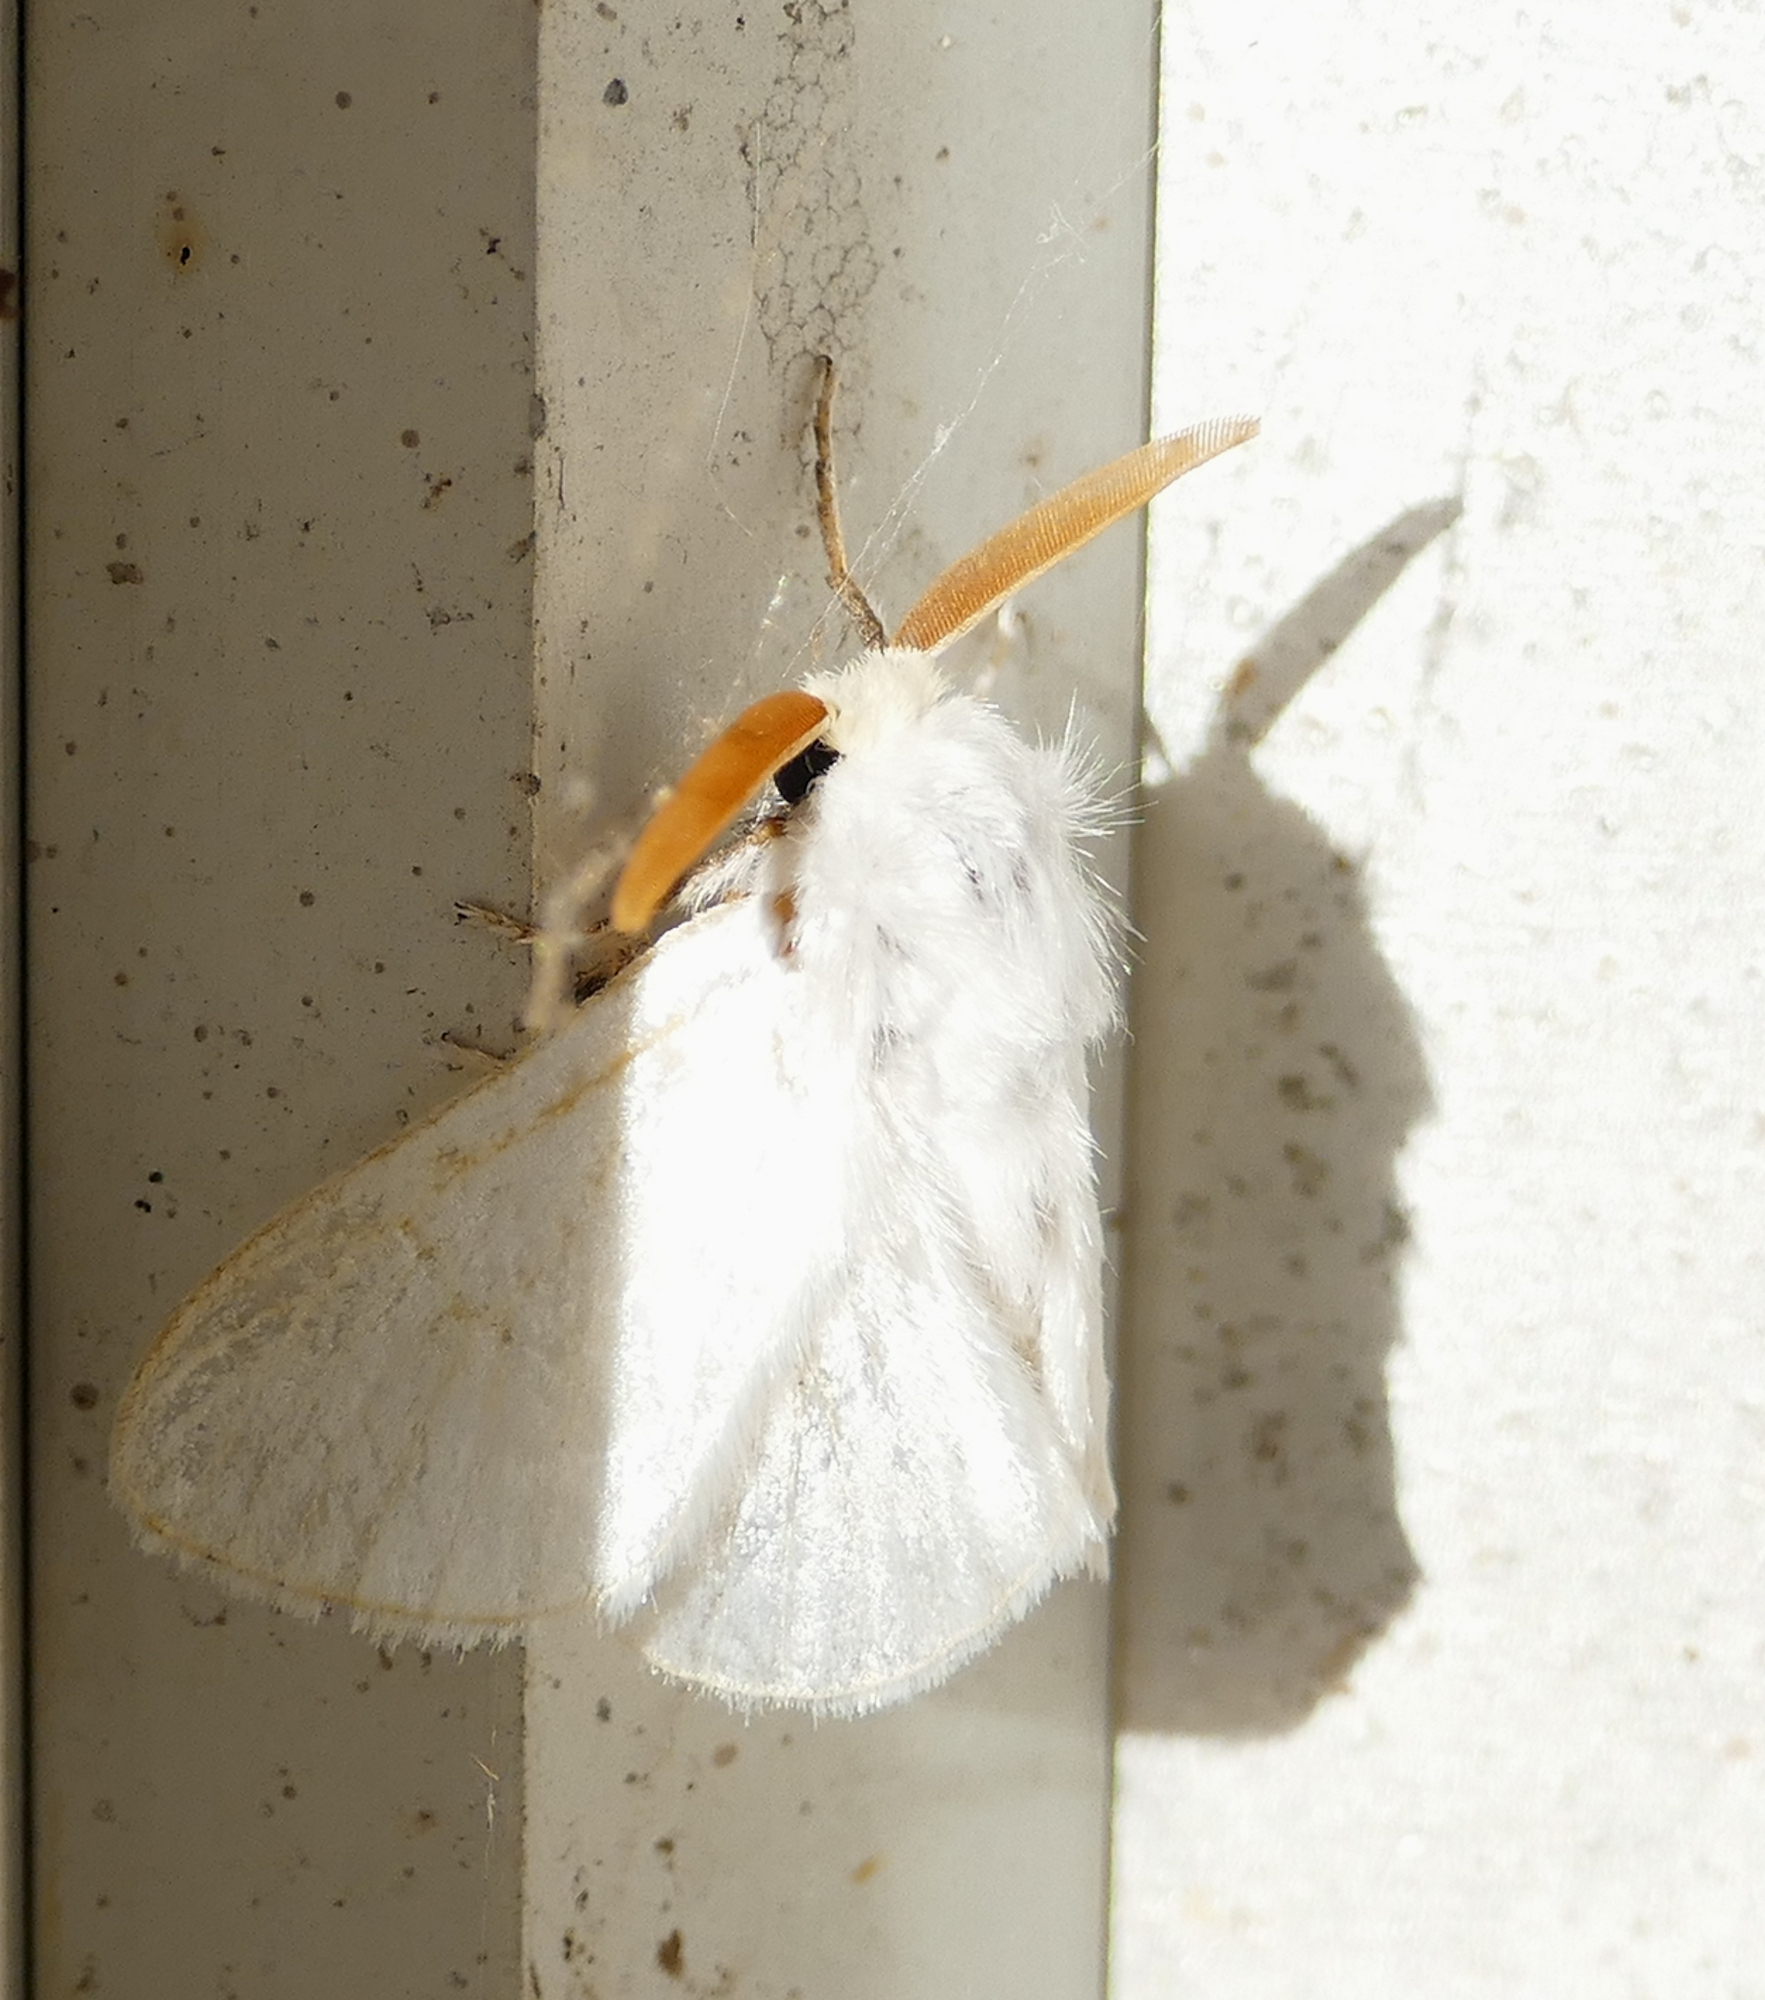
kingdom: Animalia
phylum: Arthropoda
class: Insecta
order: Lepidoptera
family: Megalopygidae
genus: Norape
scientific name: Norape cretata
